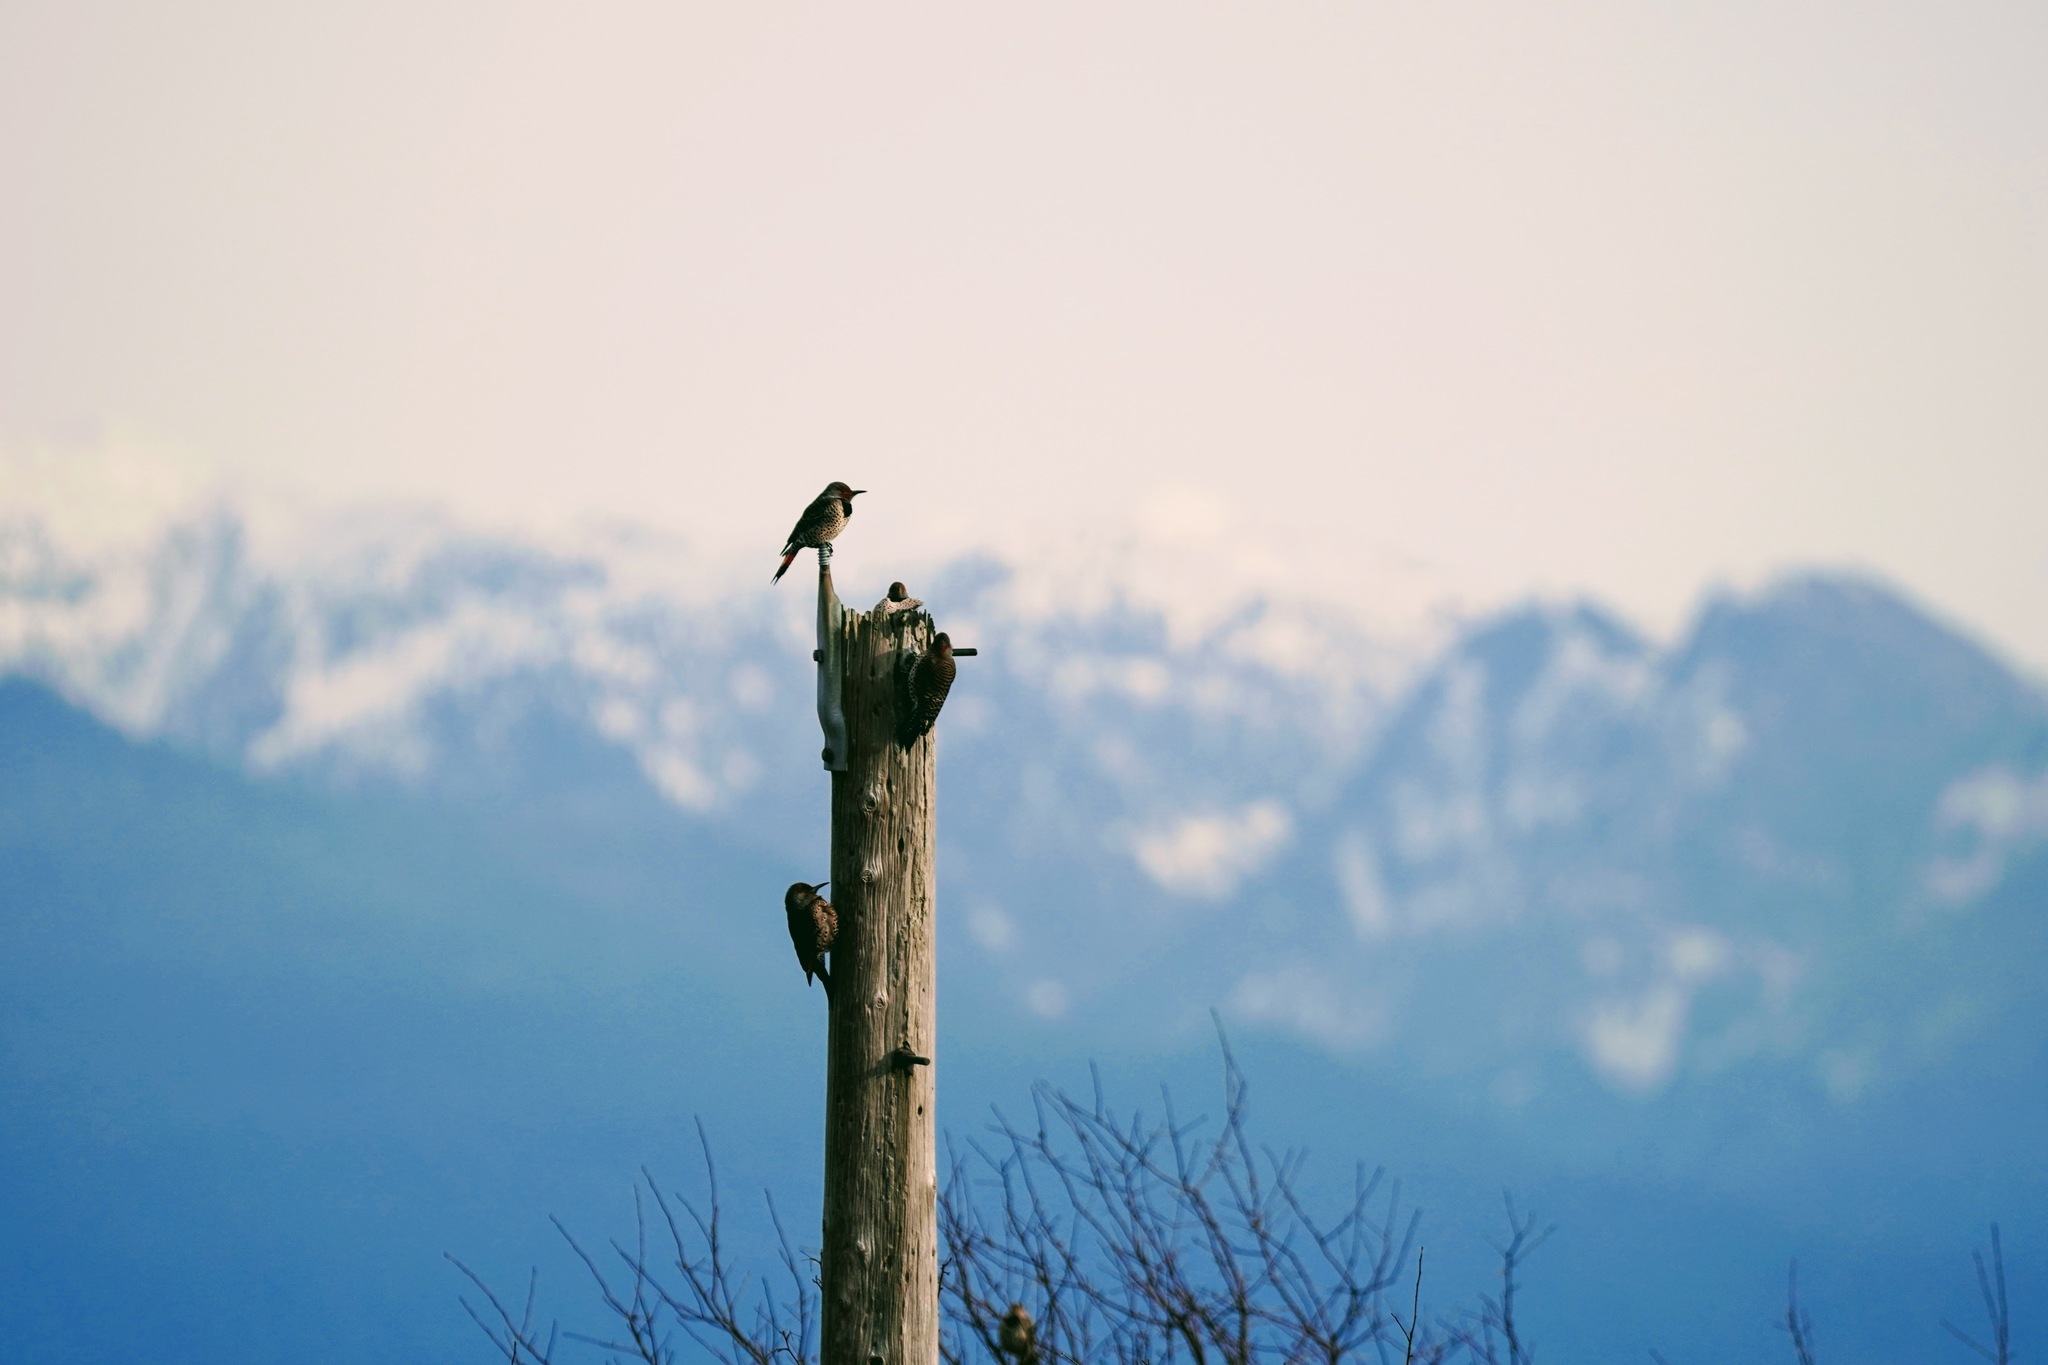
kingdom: Animalia
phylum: Chordata
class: Aves
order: Piciformes
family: Picidae
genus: Colaptes
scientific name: Colaptes auratus
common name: Northern flicker
